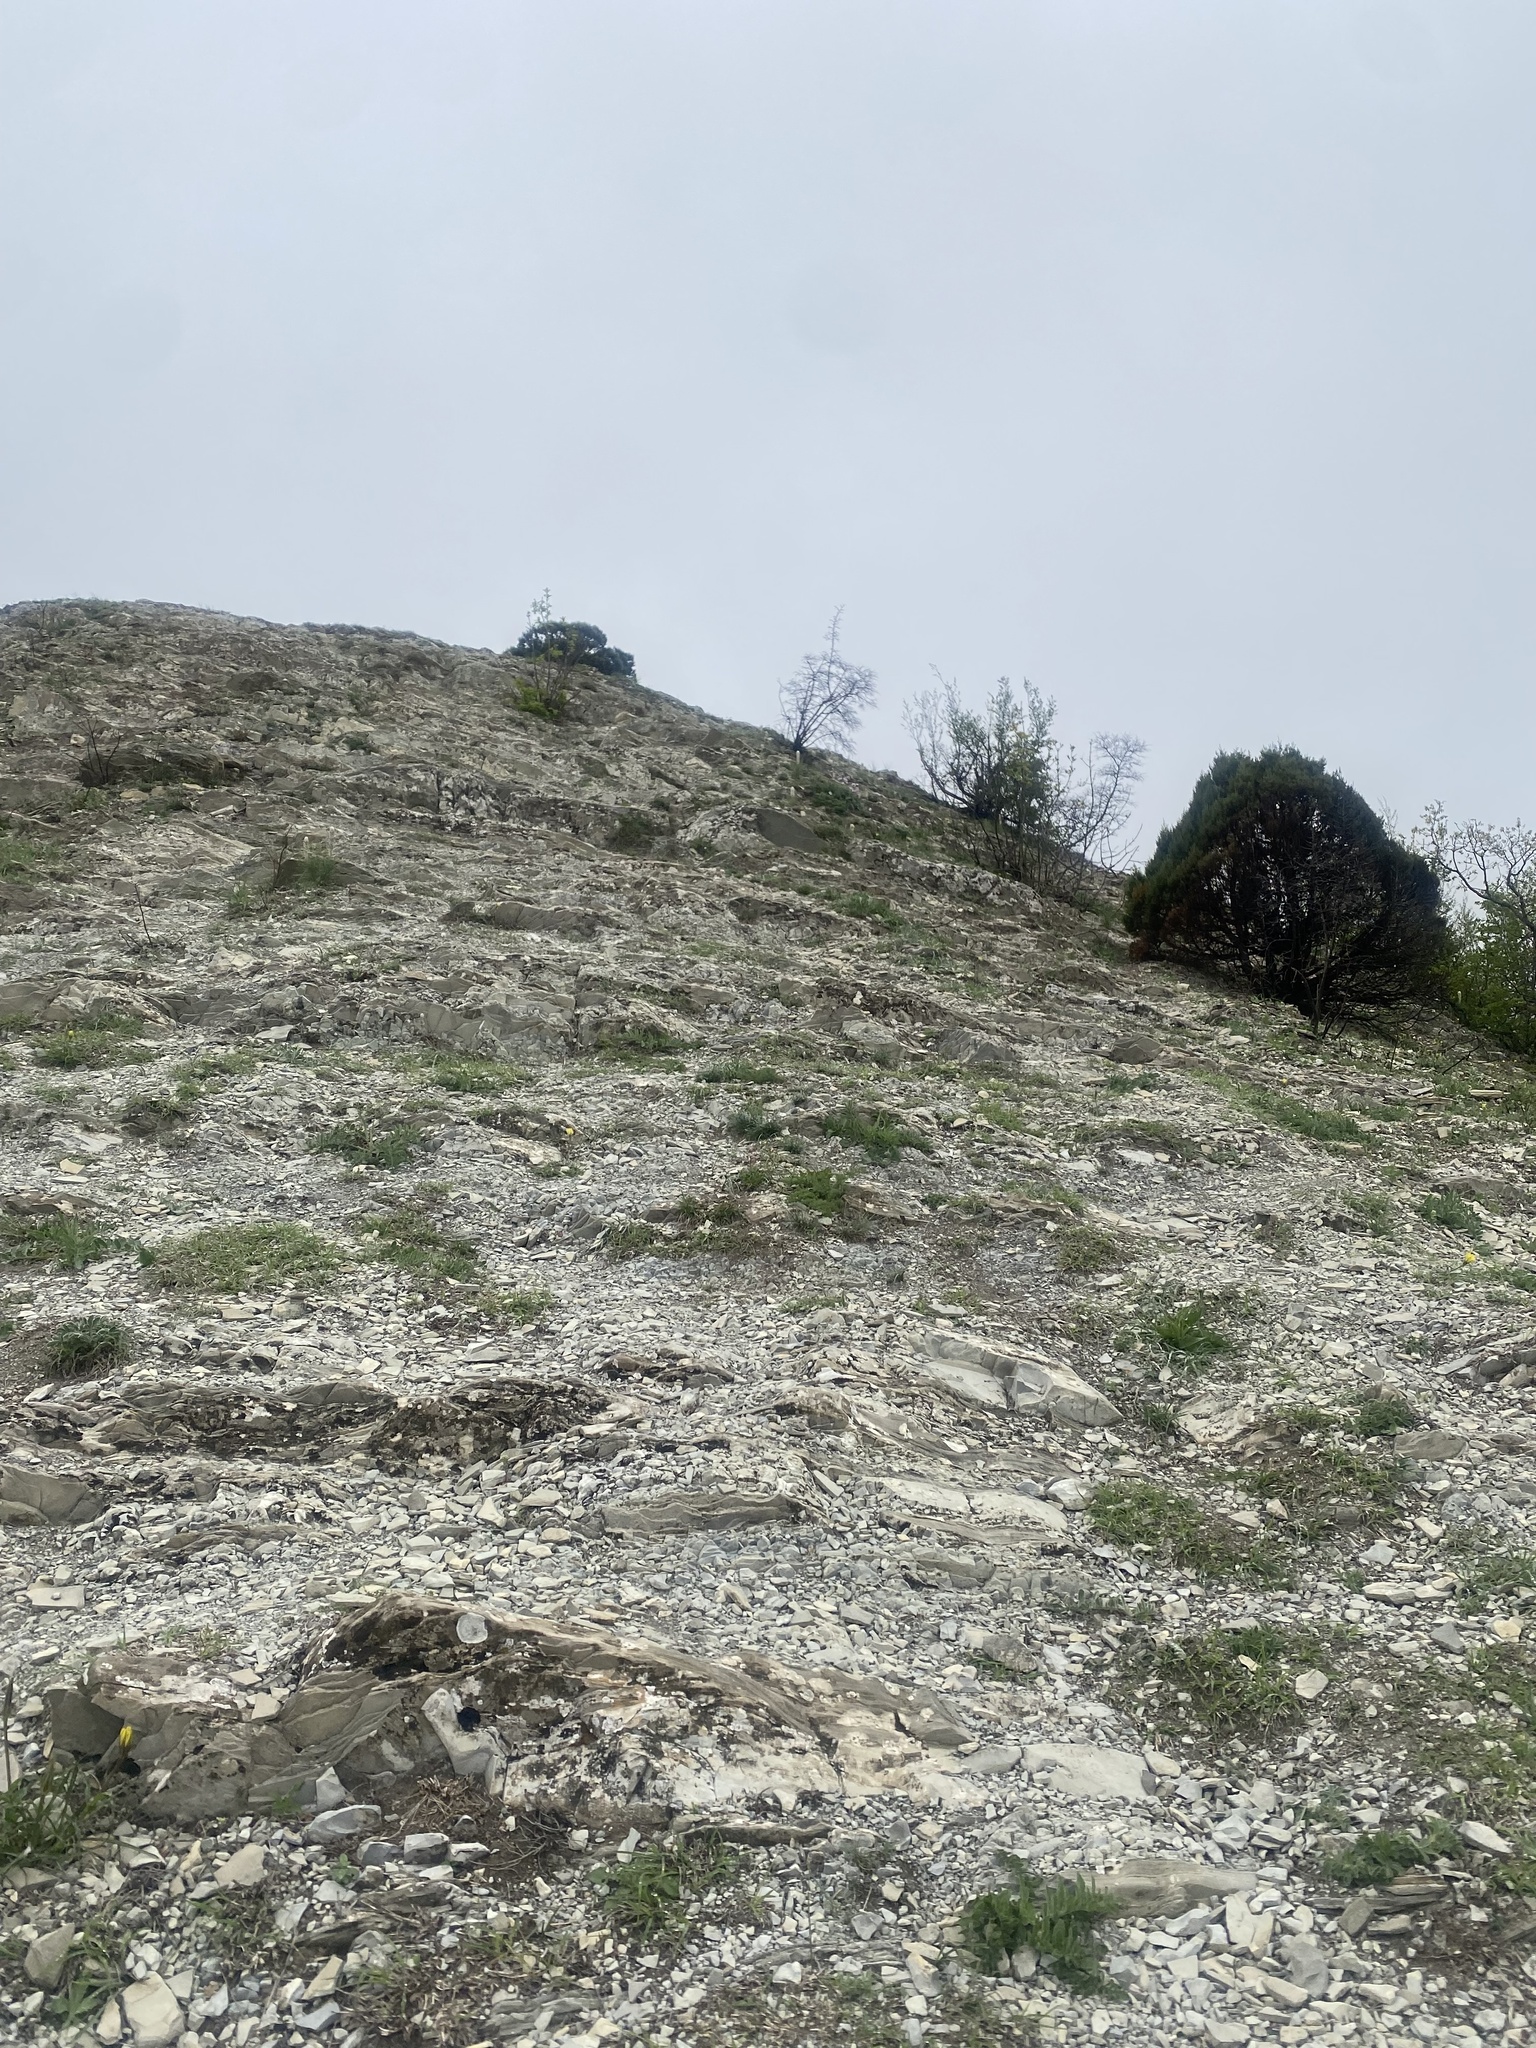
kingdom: Plantae
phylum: Tracheophyta
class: Pinopsida
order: Pinales
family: Cupressaceae
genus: Juniperus
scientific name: Juniperus foetidissima
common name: Stinking juniper
